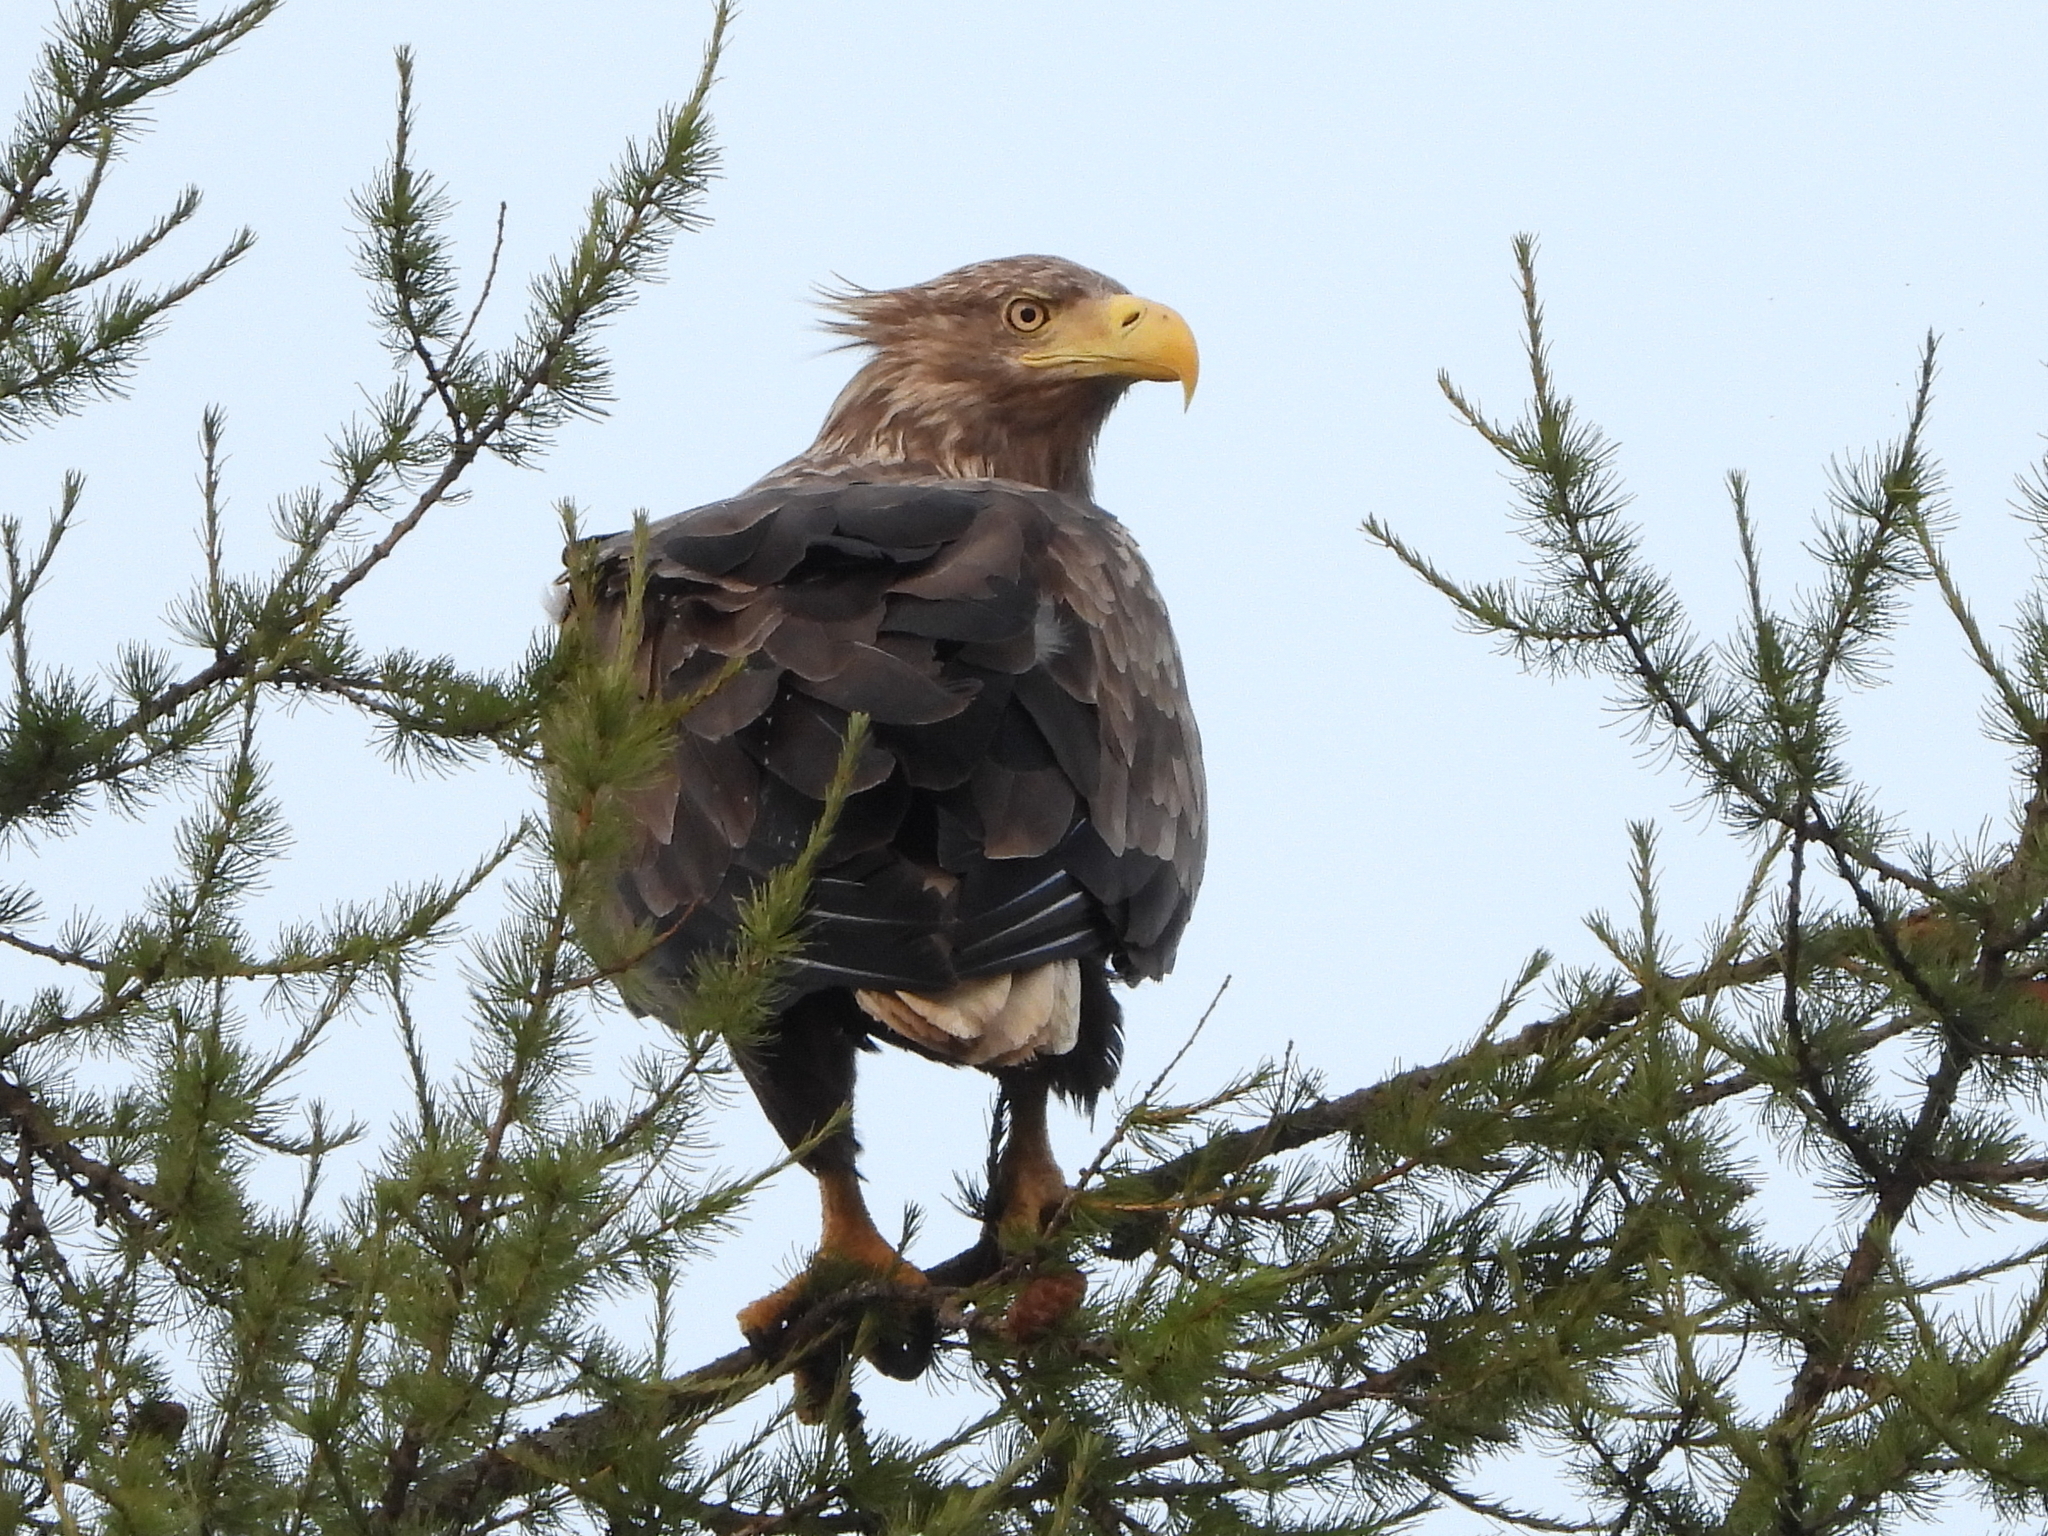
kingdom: Animalia
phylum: Chordata
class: Aves
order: Accipitriformes
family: Accipitridae
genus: Haliaeetus
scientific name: Haliaeetus albicilla
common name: White-tailed eagle
